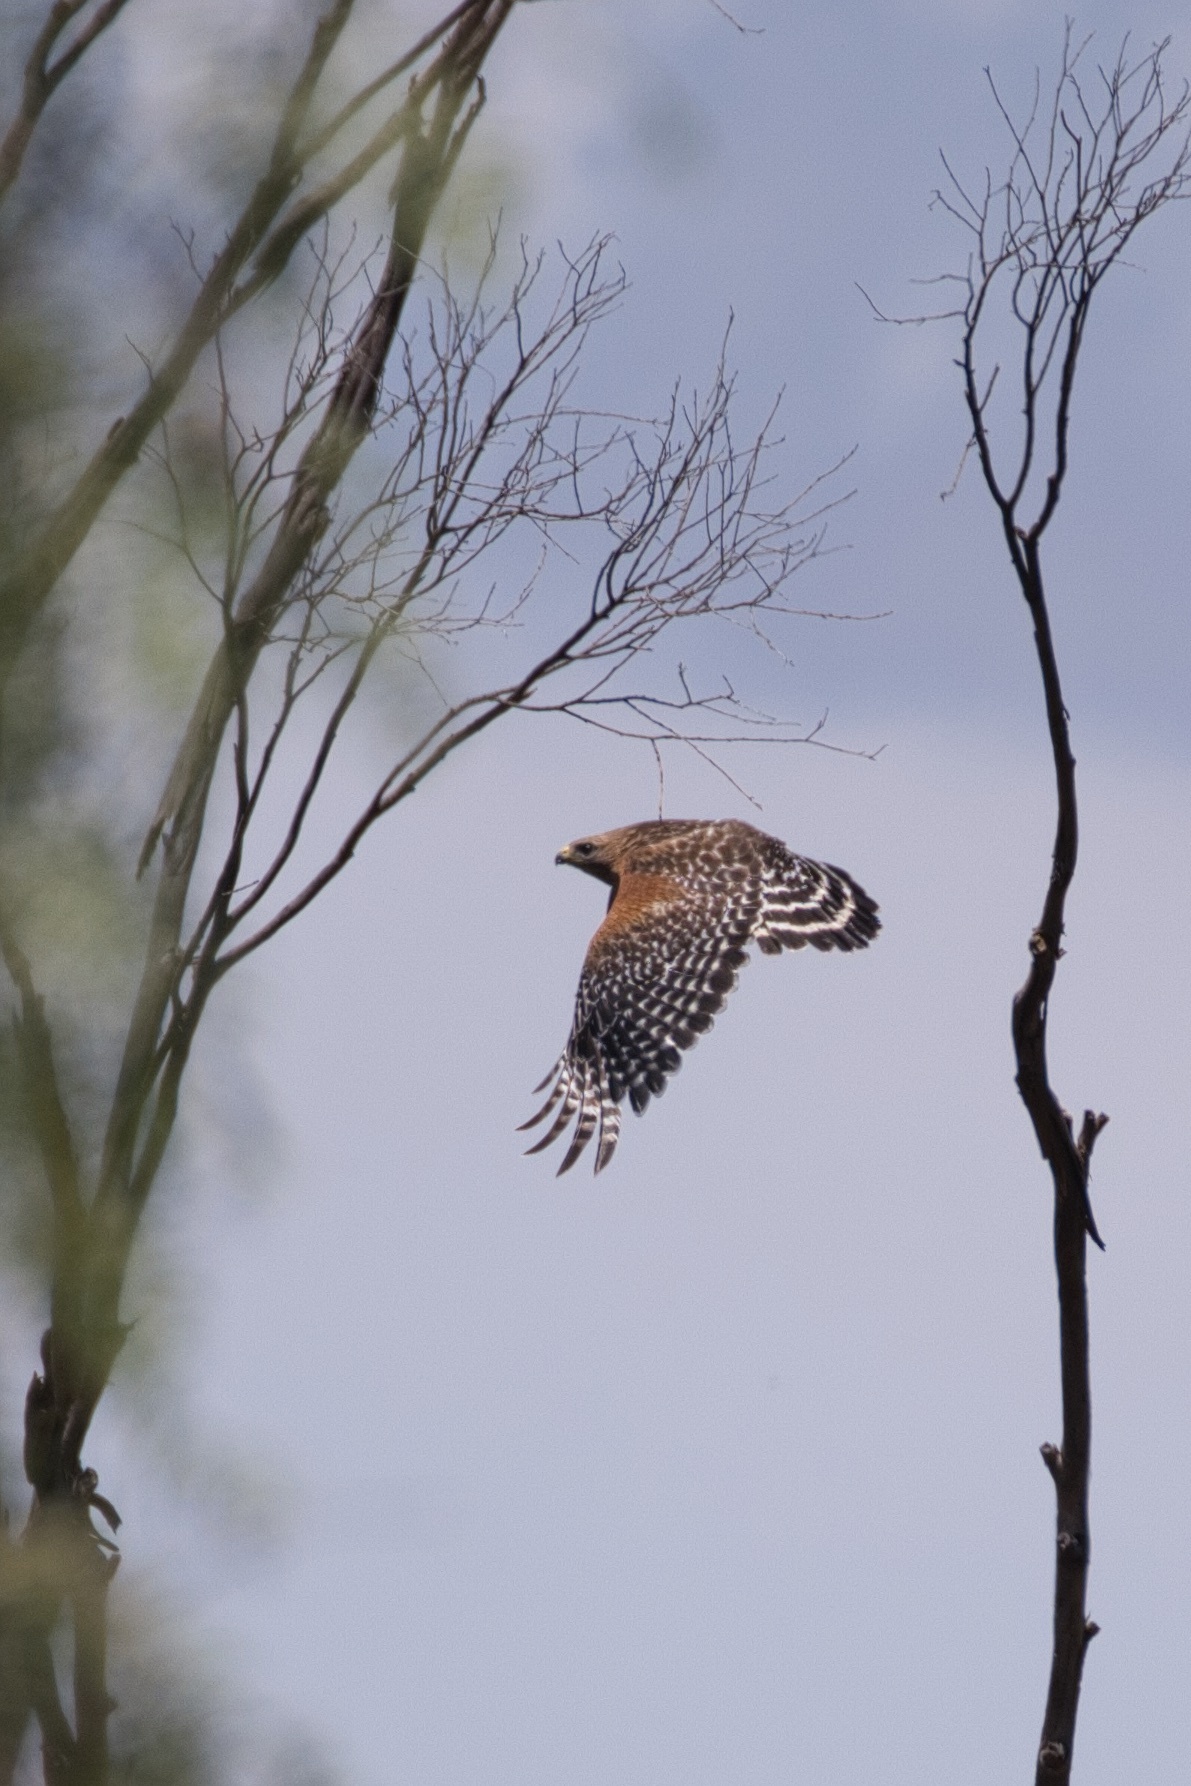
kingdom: Animalia
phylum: Chordata
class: Aves
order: Accipitriformes
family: Accipitridae
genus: Buteo
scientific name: Buteo lineatus
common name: Red-shouldered hawk
